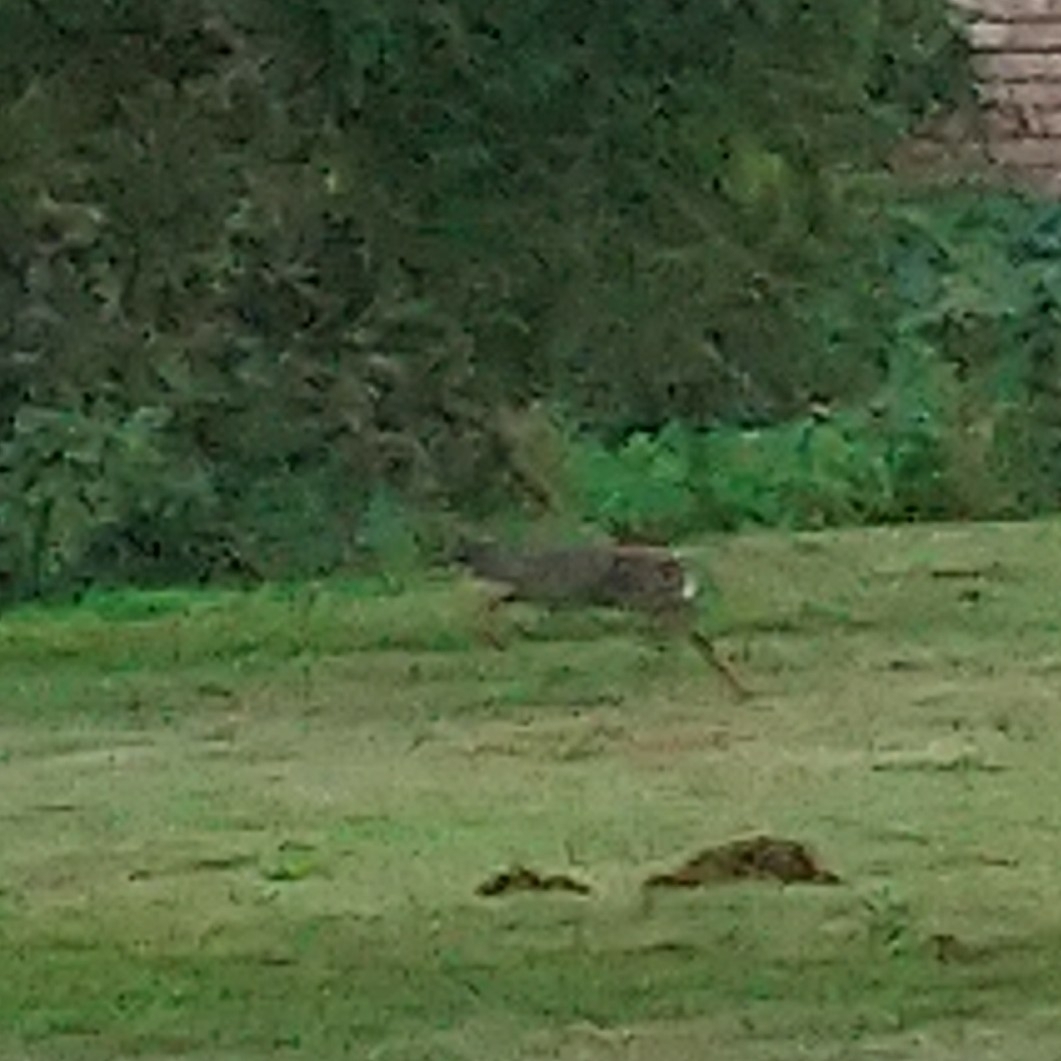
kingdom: Animalia
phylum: Chordata
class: Mammalia
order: Artiodactyla
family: Bovidae
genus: Philantomba
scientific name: Philantomba monticola
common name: Blue duiker
